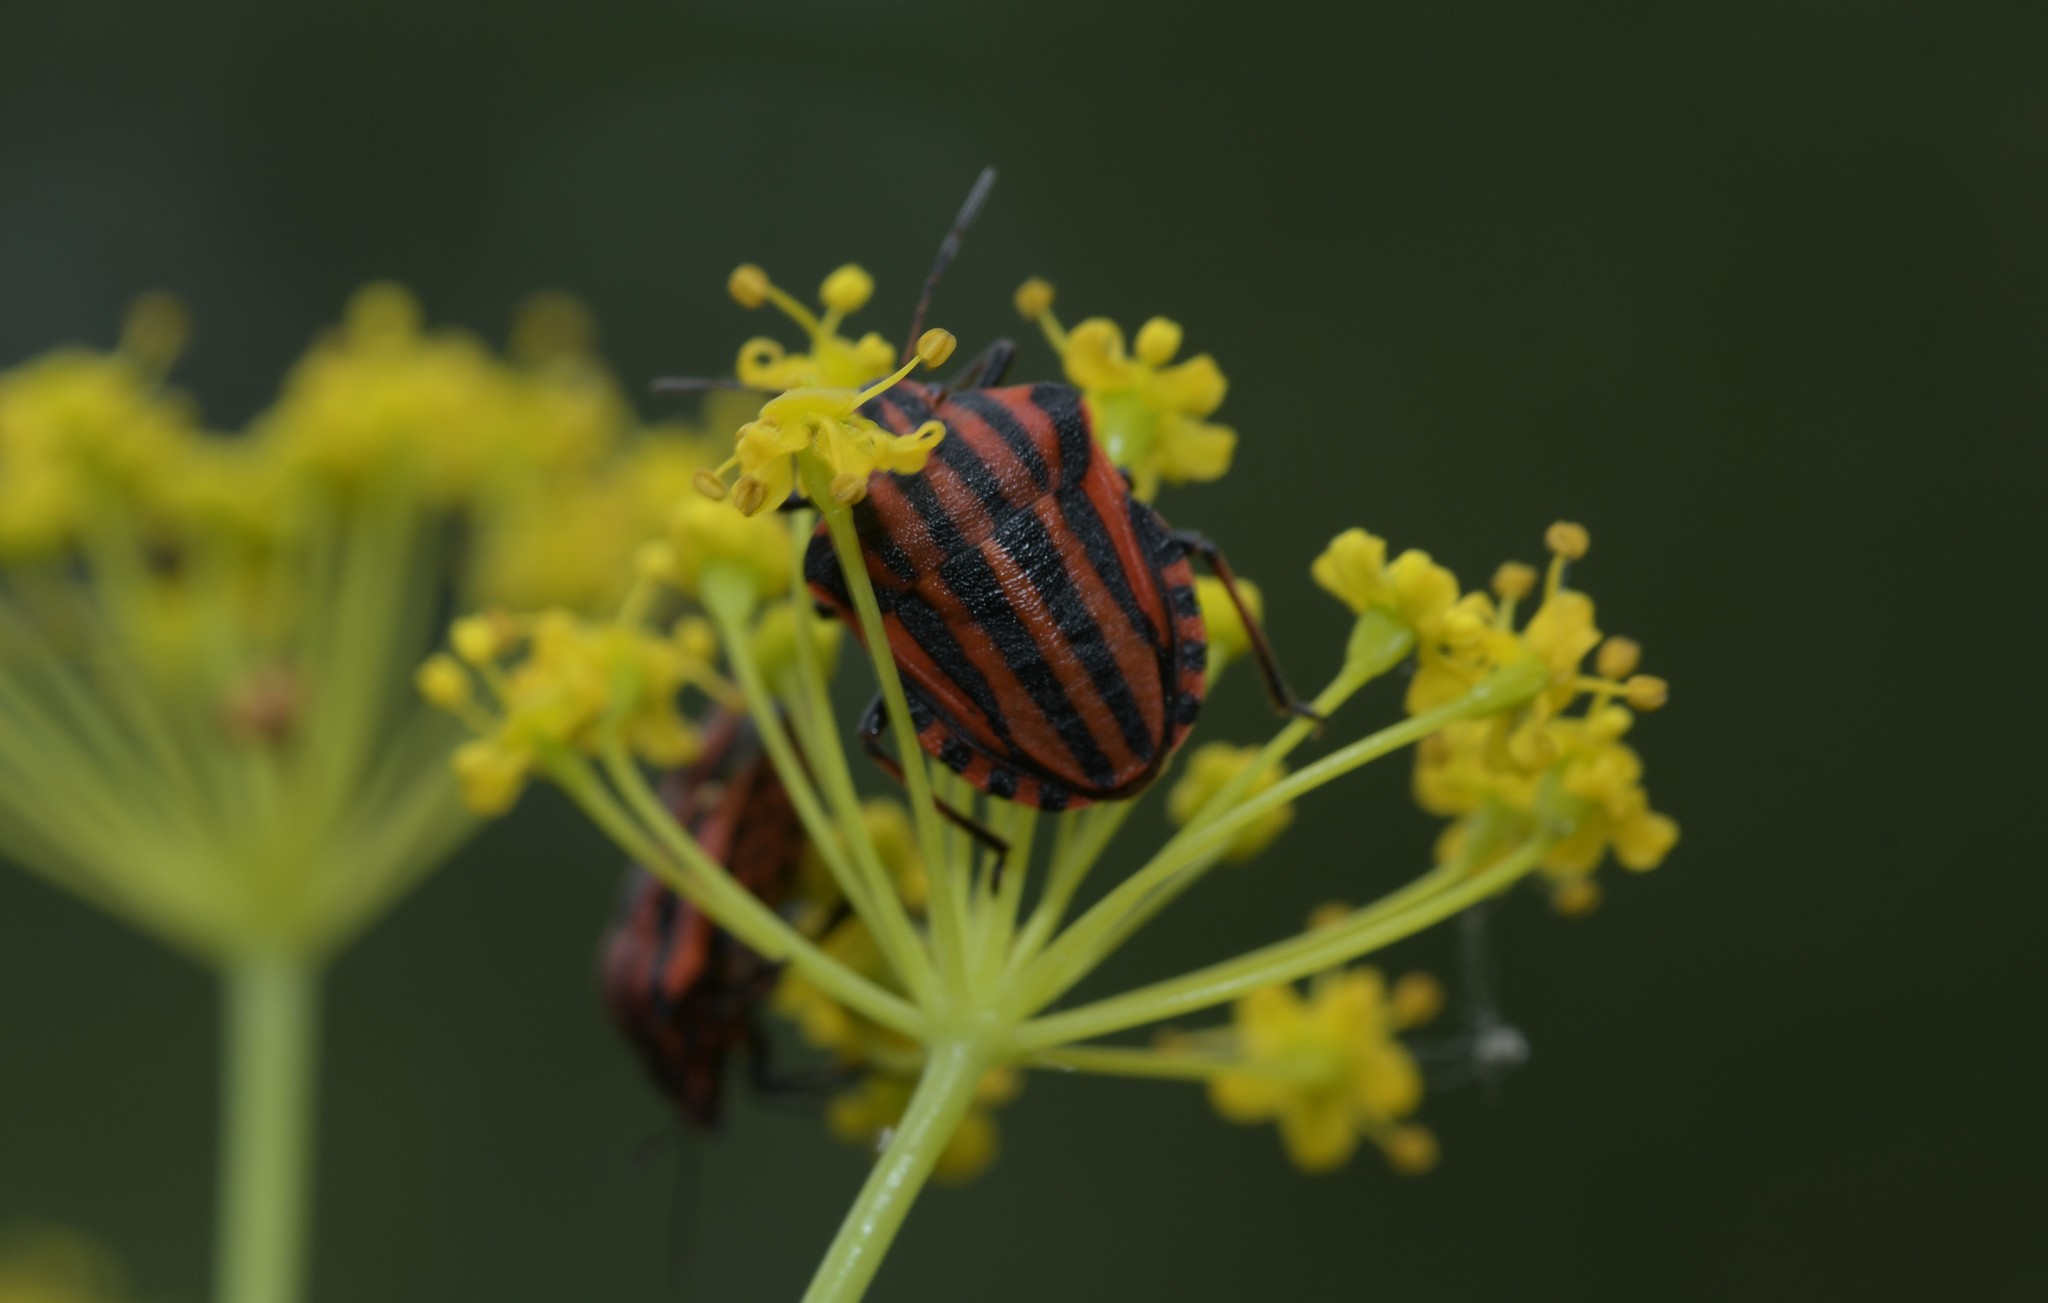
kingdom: Animalia
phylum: Arthropoda
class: Insecta
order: Hemiptera
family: Pentatomidae
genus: Graphosoma
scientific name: Graphosoma italicum
